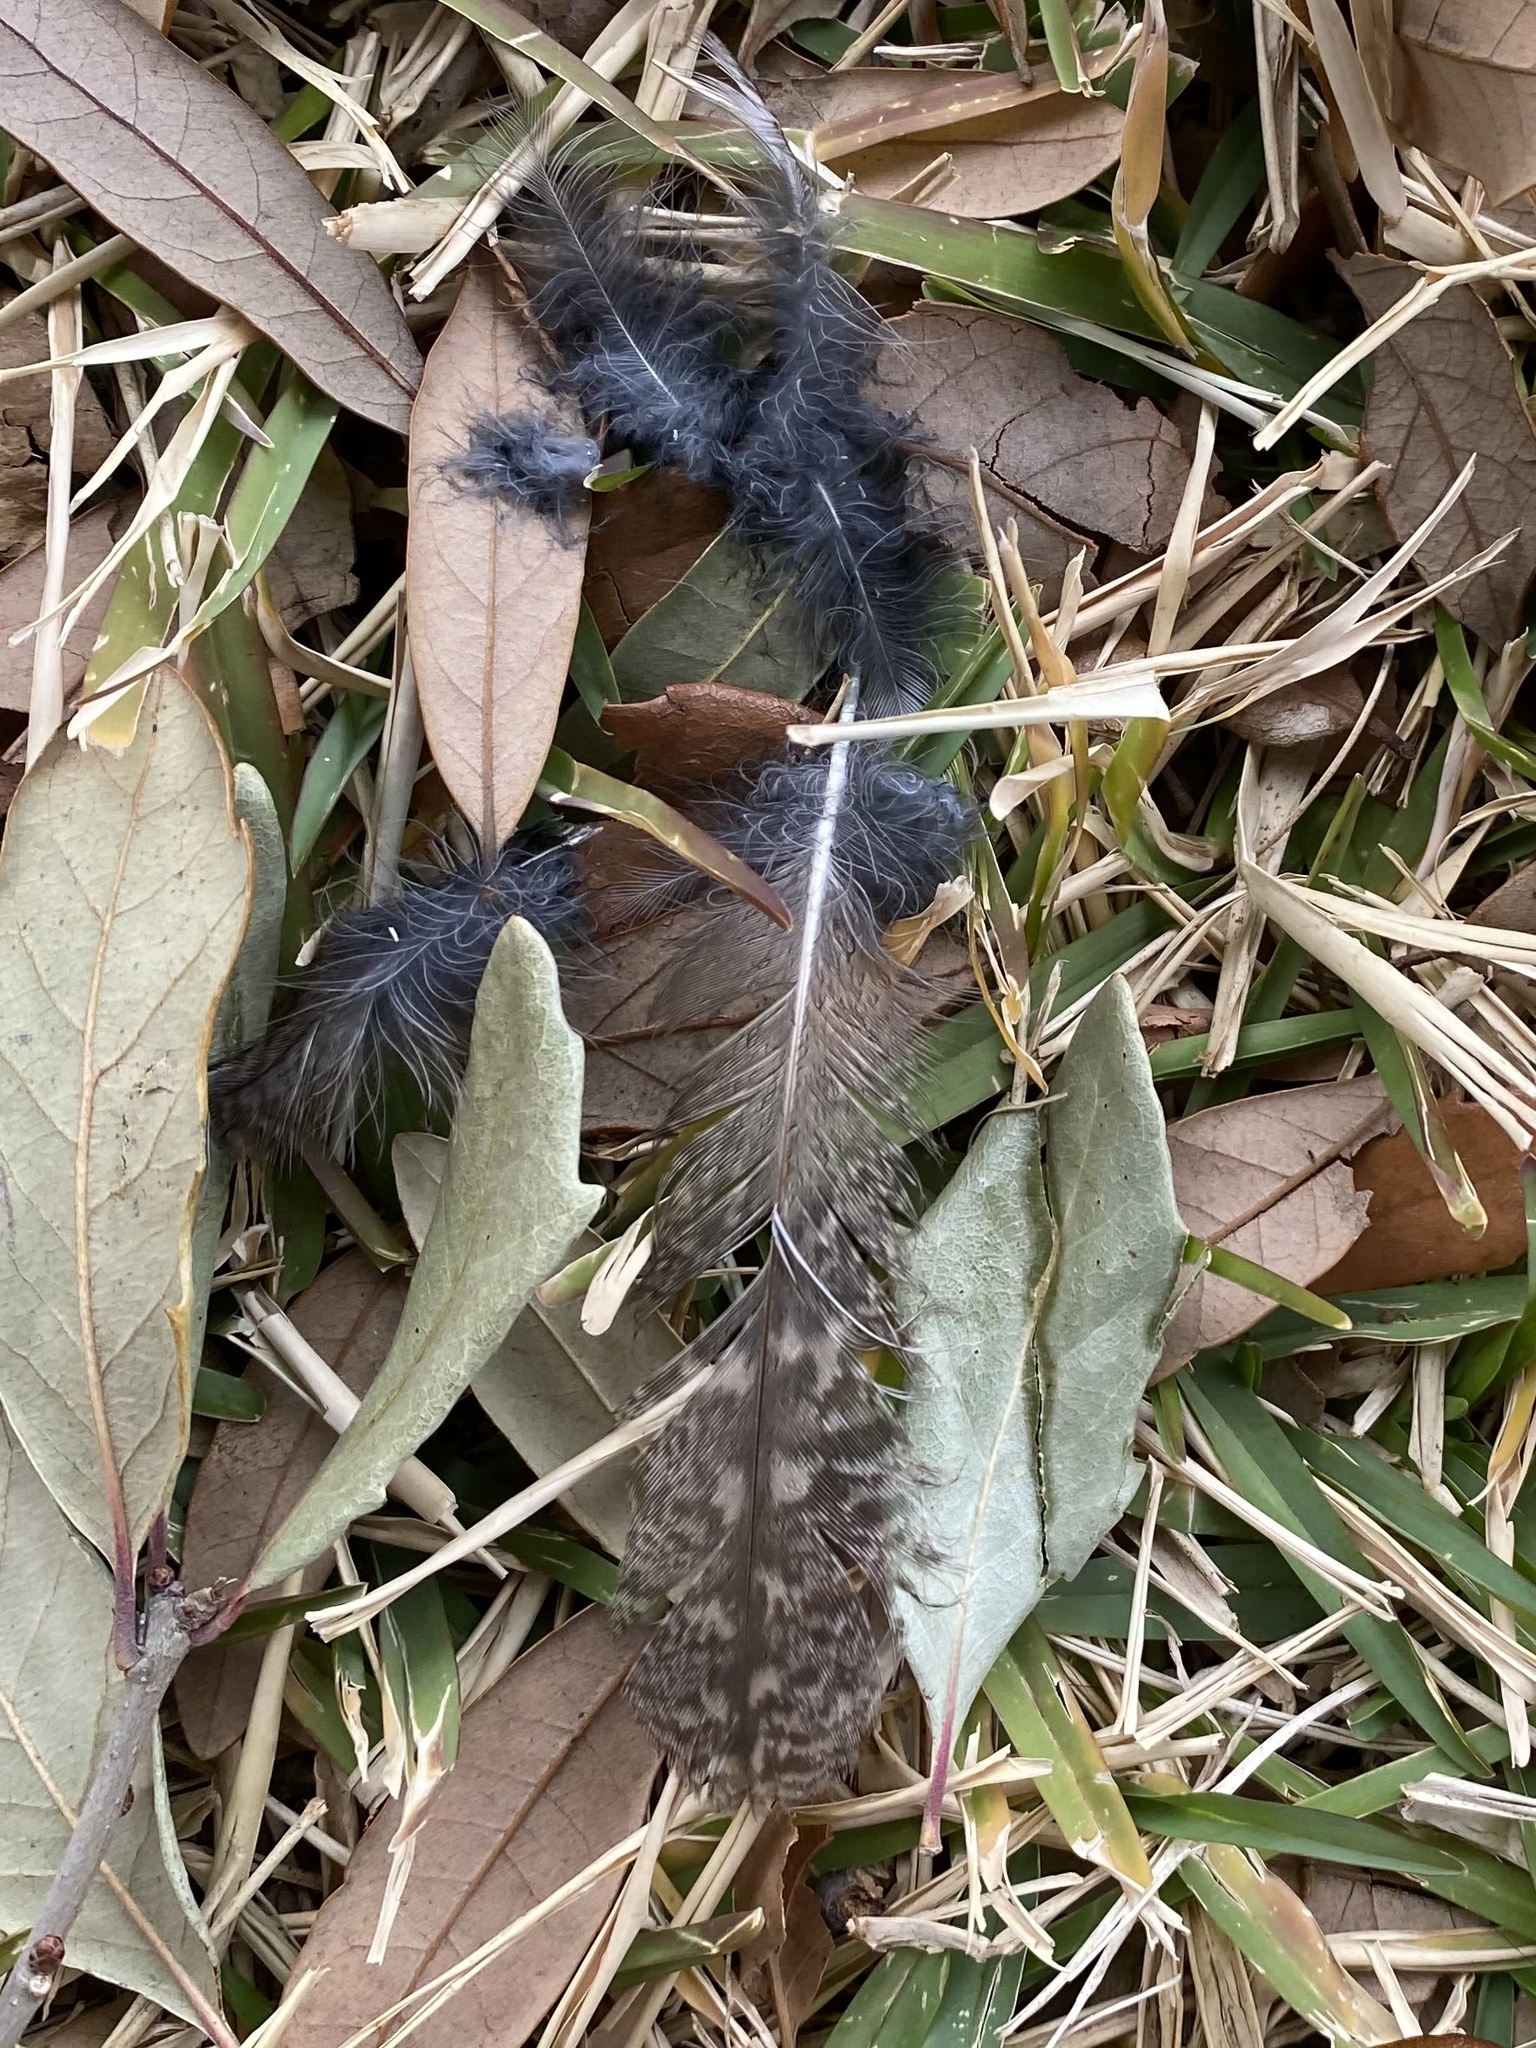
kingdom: Animalia
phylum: Chordata
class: Aves
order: Strigiformes
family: Strigidae
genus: Megascops
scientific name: Megascops asio
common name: Eastern screech-owl
